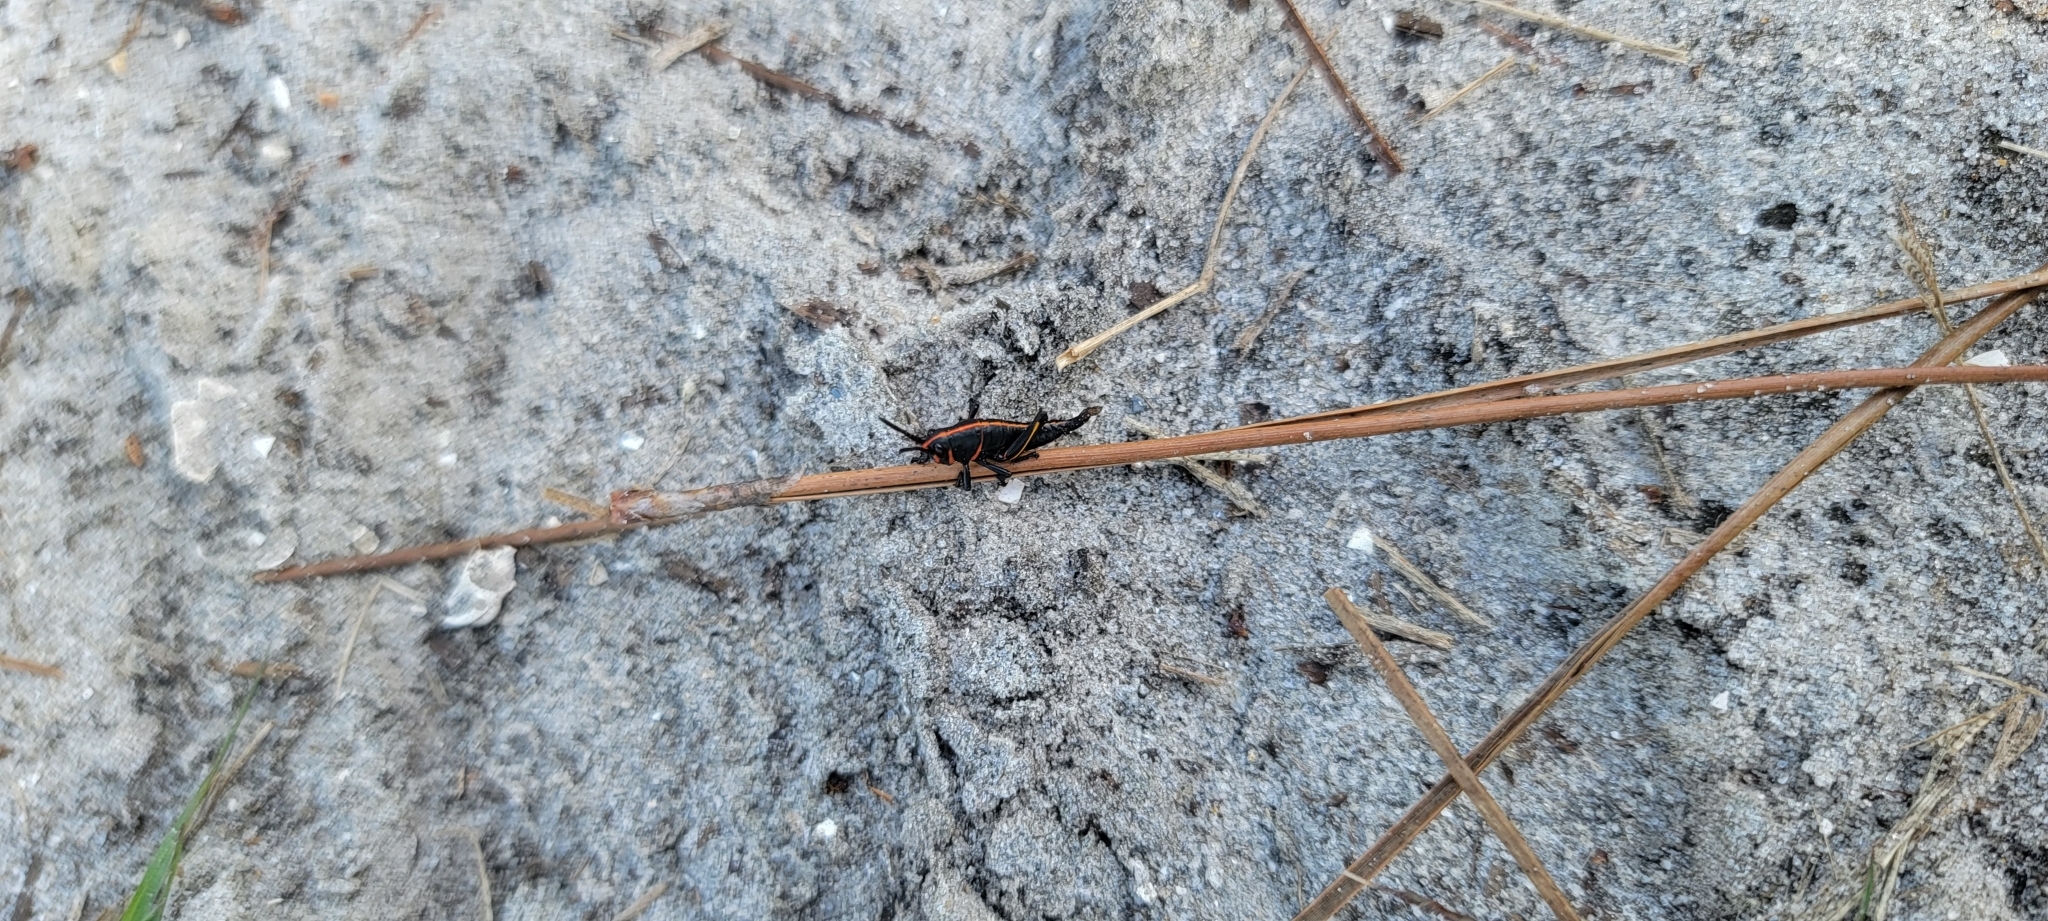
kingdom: Animalia
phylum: Arthropoda
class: Insecta
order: Orthoptera
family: Romaleidae
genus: Romalea
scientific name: Romalea microptera
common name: Eastern lubber grasshopper
